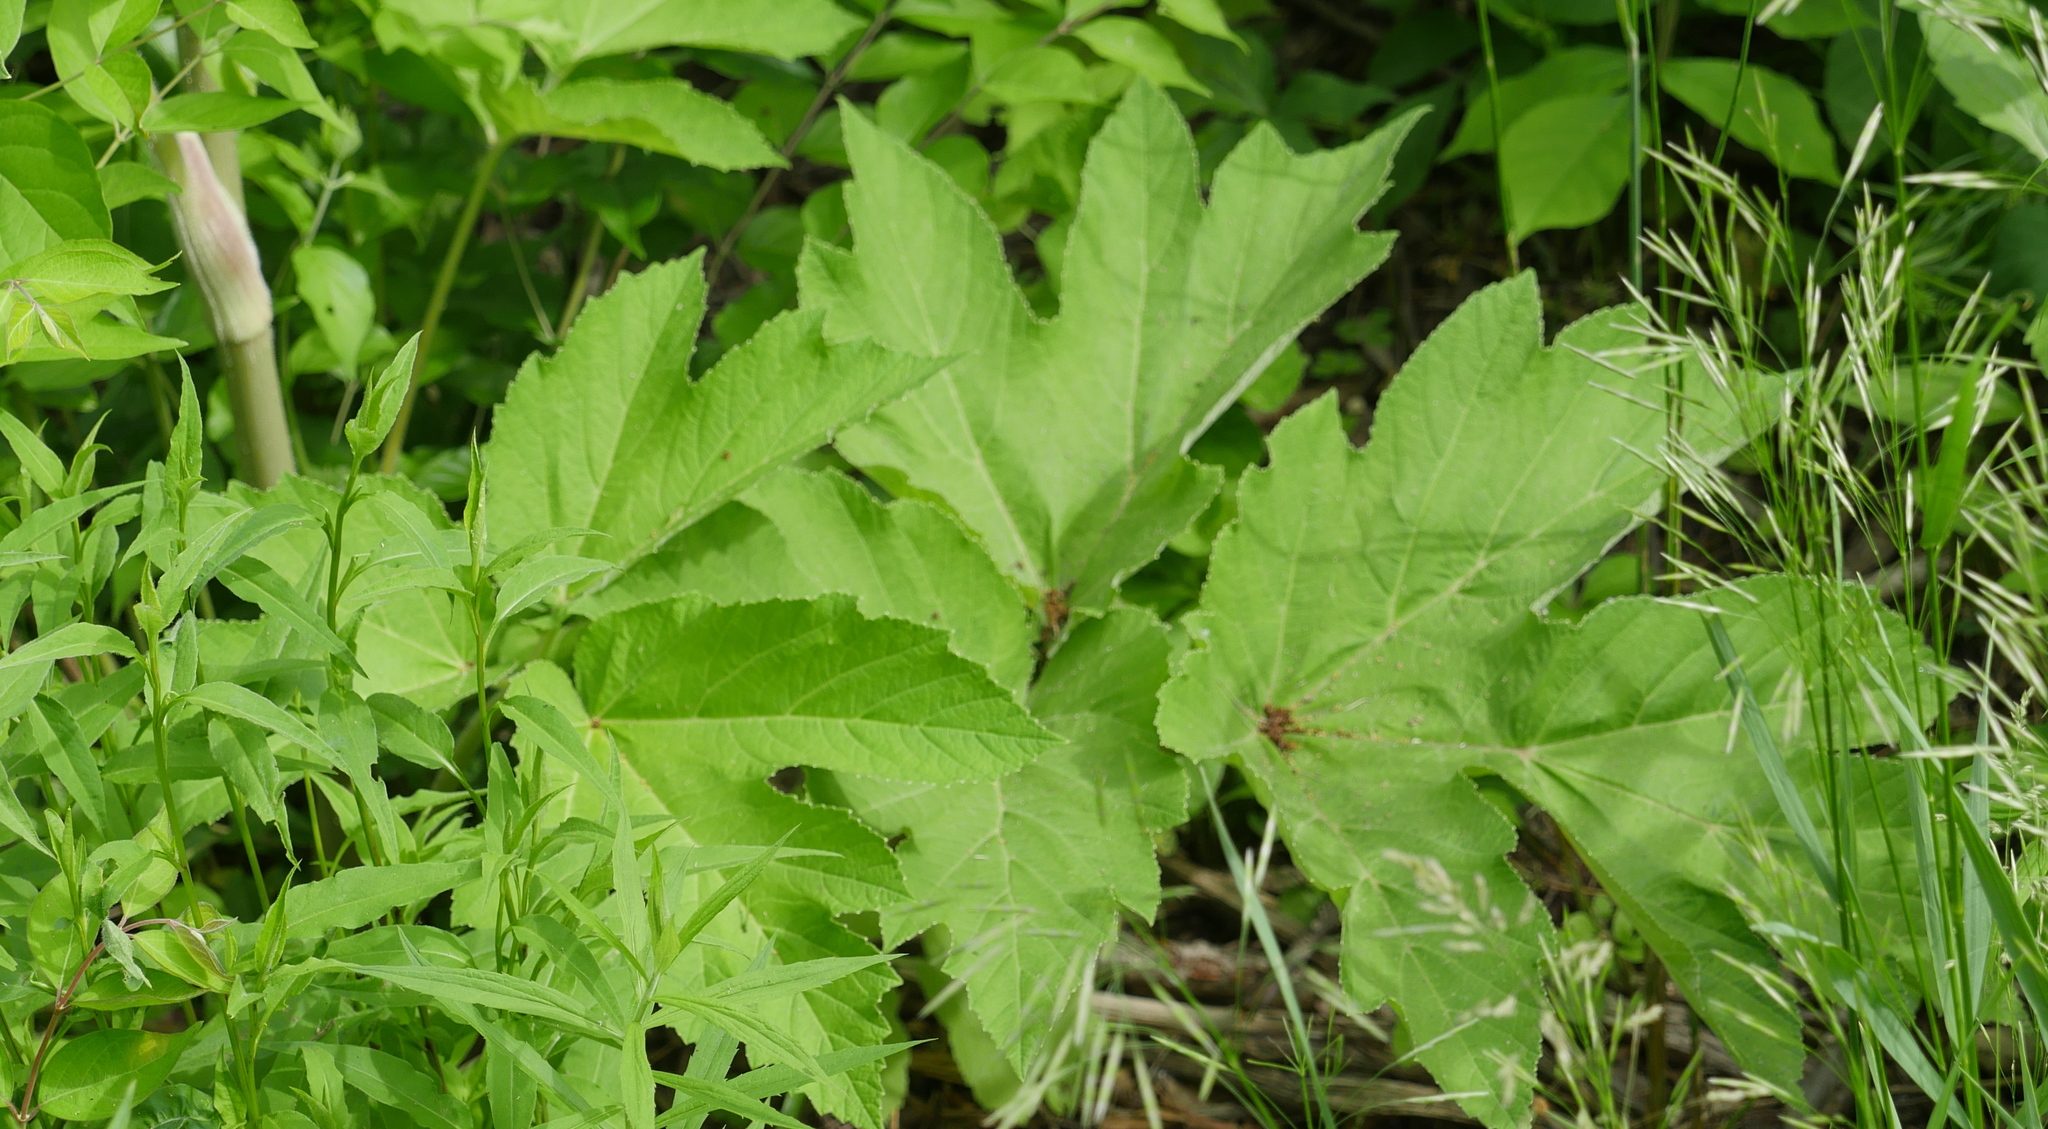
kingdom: Plantae
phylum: Tracheophyta
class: Magnoliopsida
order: Apiales
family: Apiaceae
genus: Heracleum
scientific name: Heracleum maximum
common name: American cow parsnip
